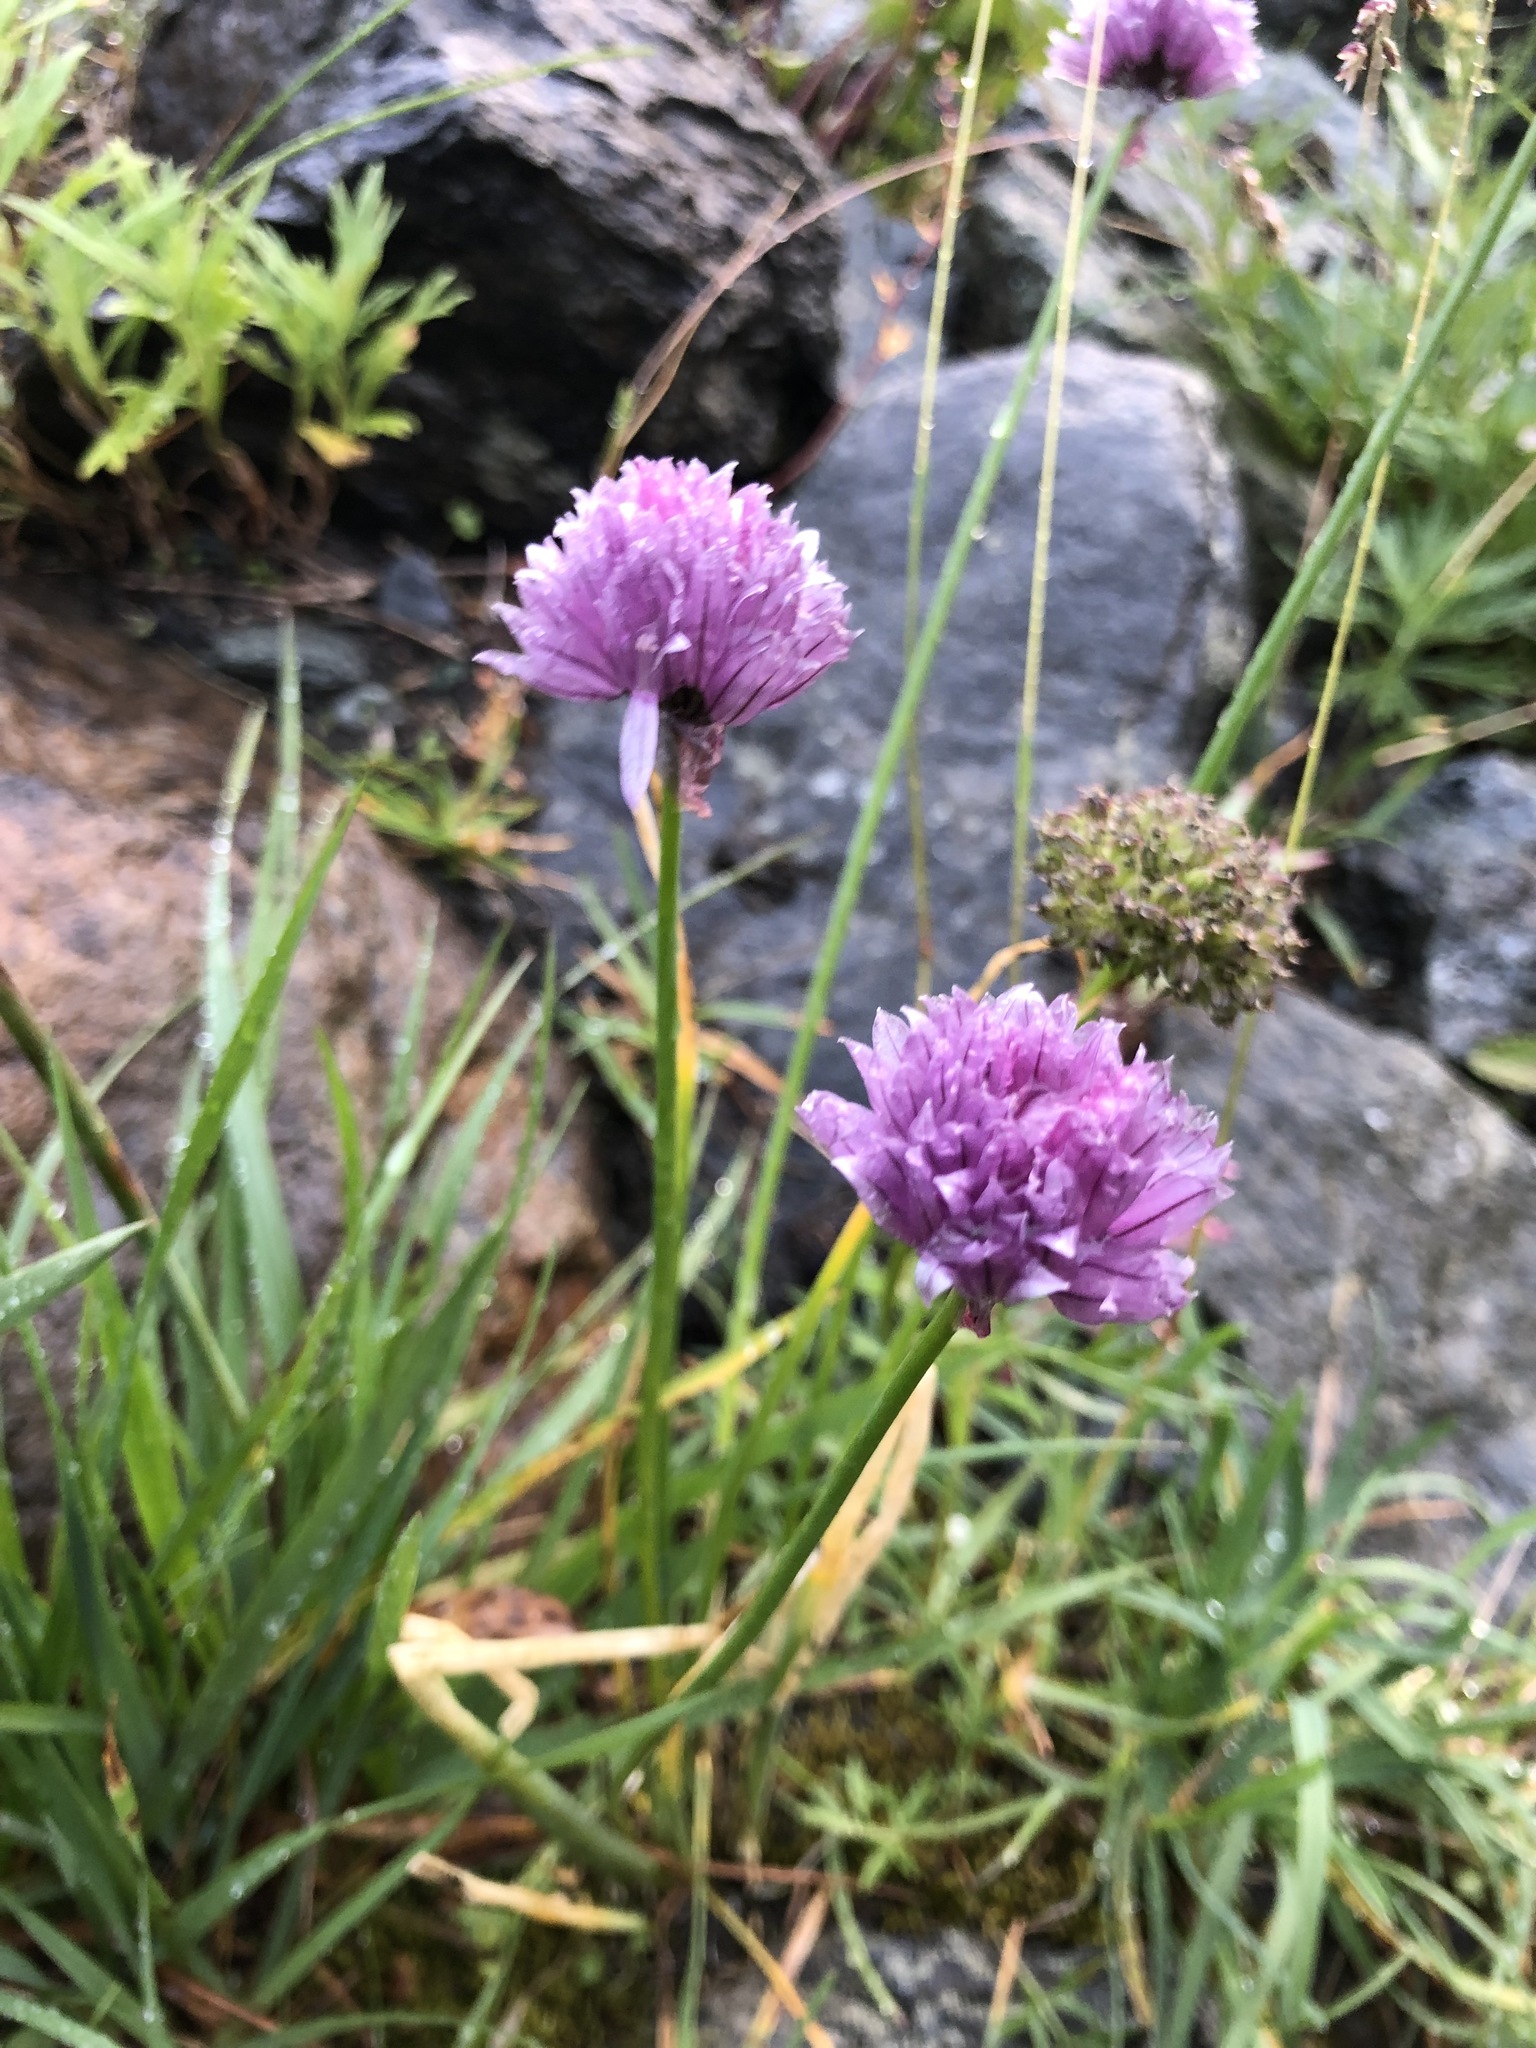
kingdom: Plantae
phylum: Tracheophyta
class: Liliopsida
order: Asparagales
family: Amaryllidaceae
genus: Allium
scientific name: Allium schoenoprasum
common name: Chives
